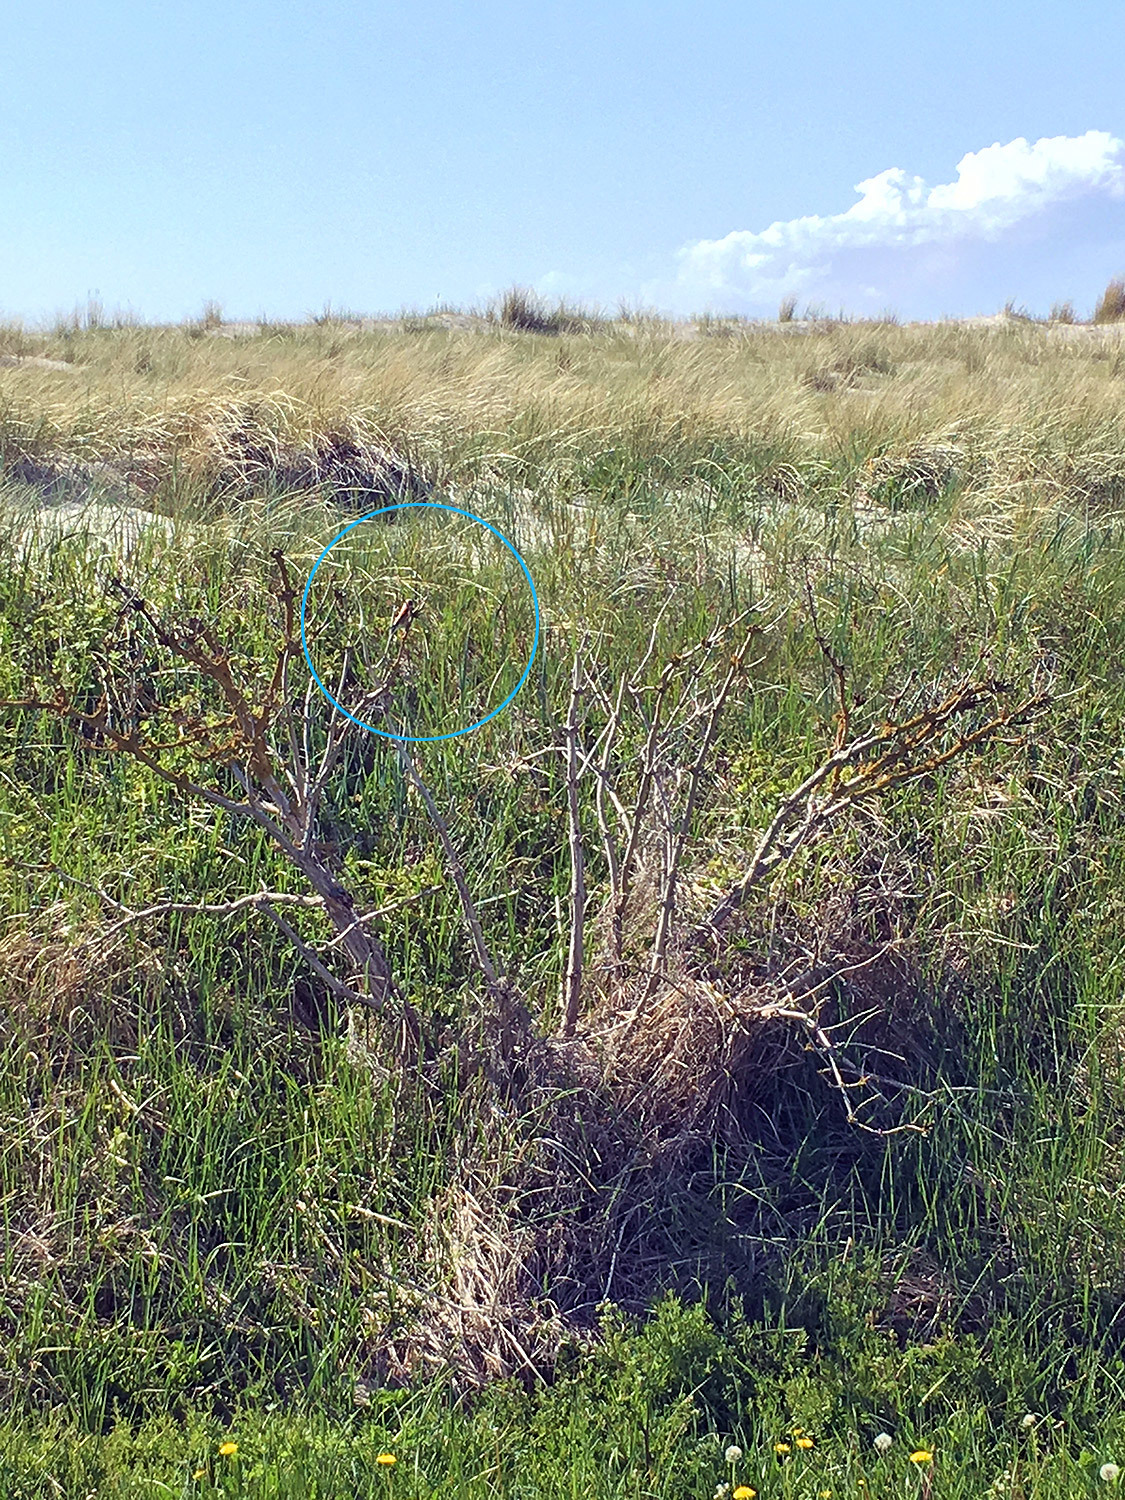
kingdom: Animalia
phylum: Chordata
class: Aves
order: Passeriformes
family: Remizidae
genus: Remiz
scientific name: Remiz pendulinus
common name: Eurasian penduline tit
